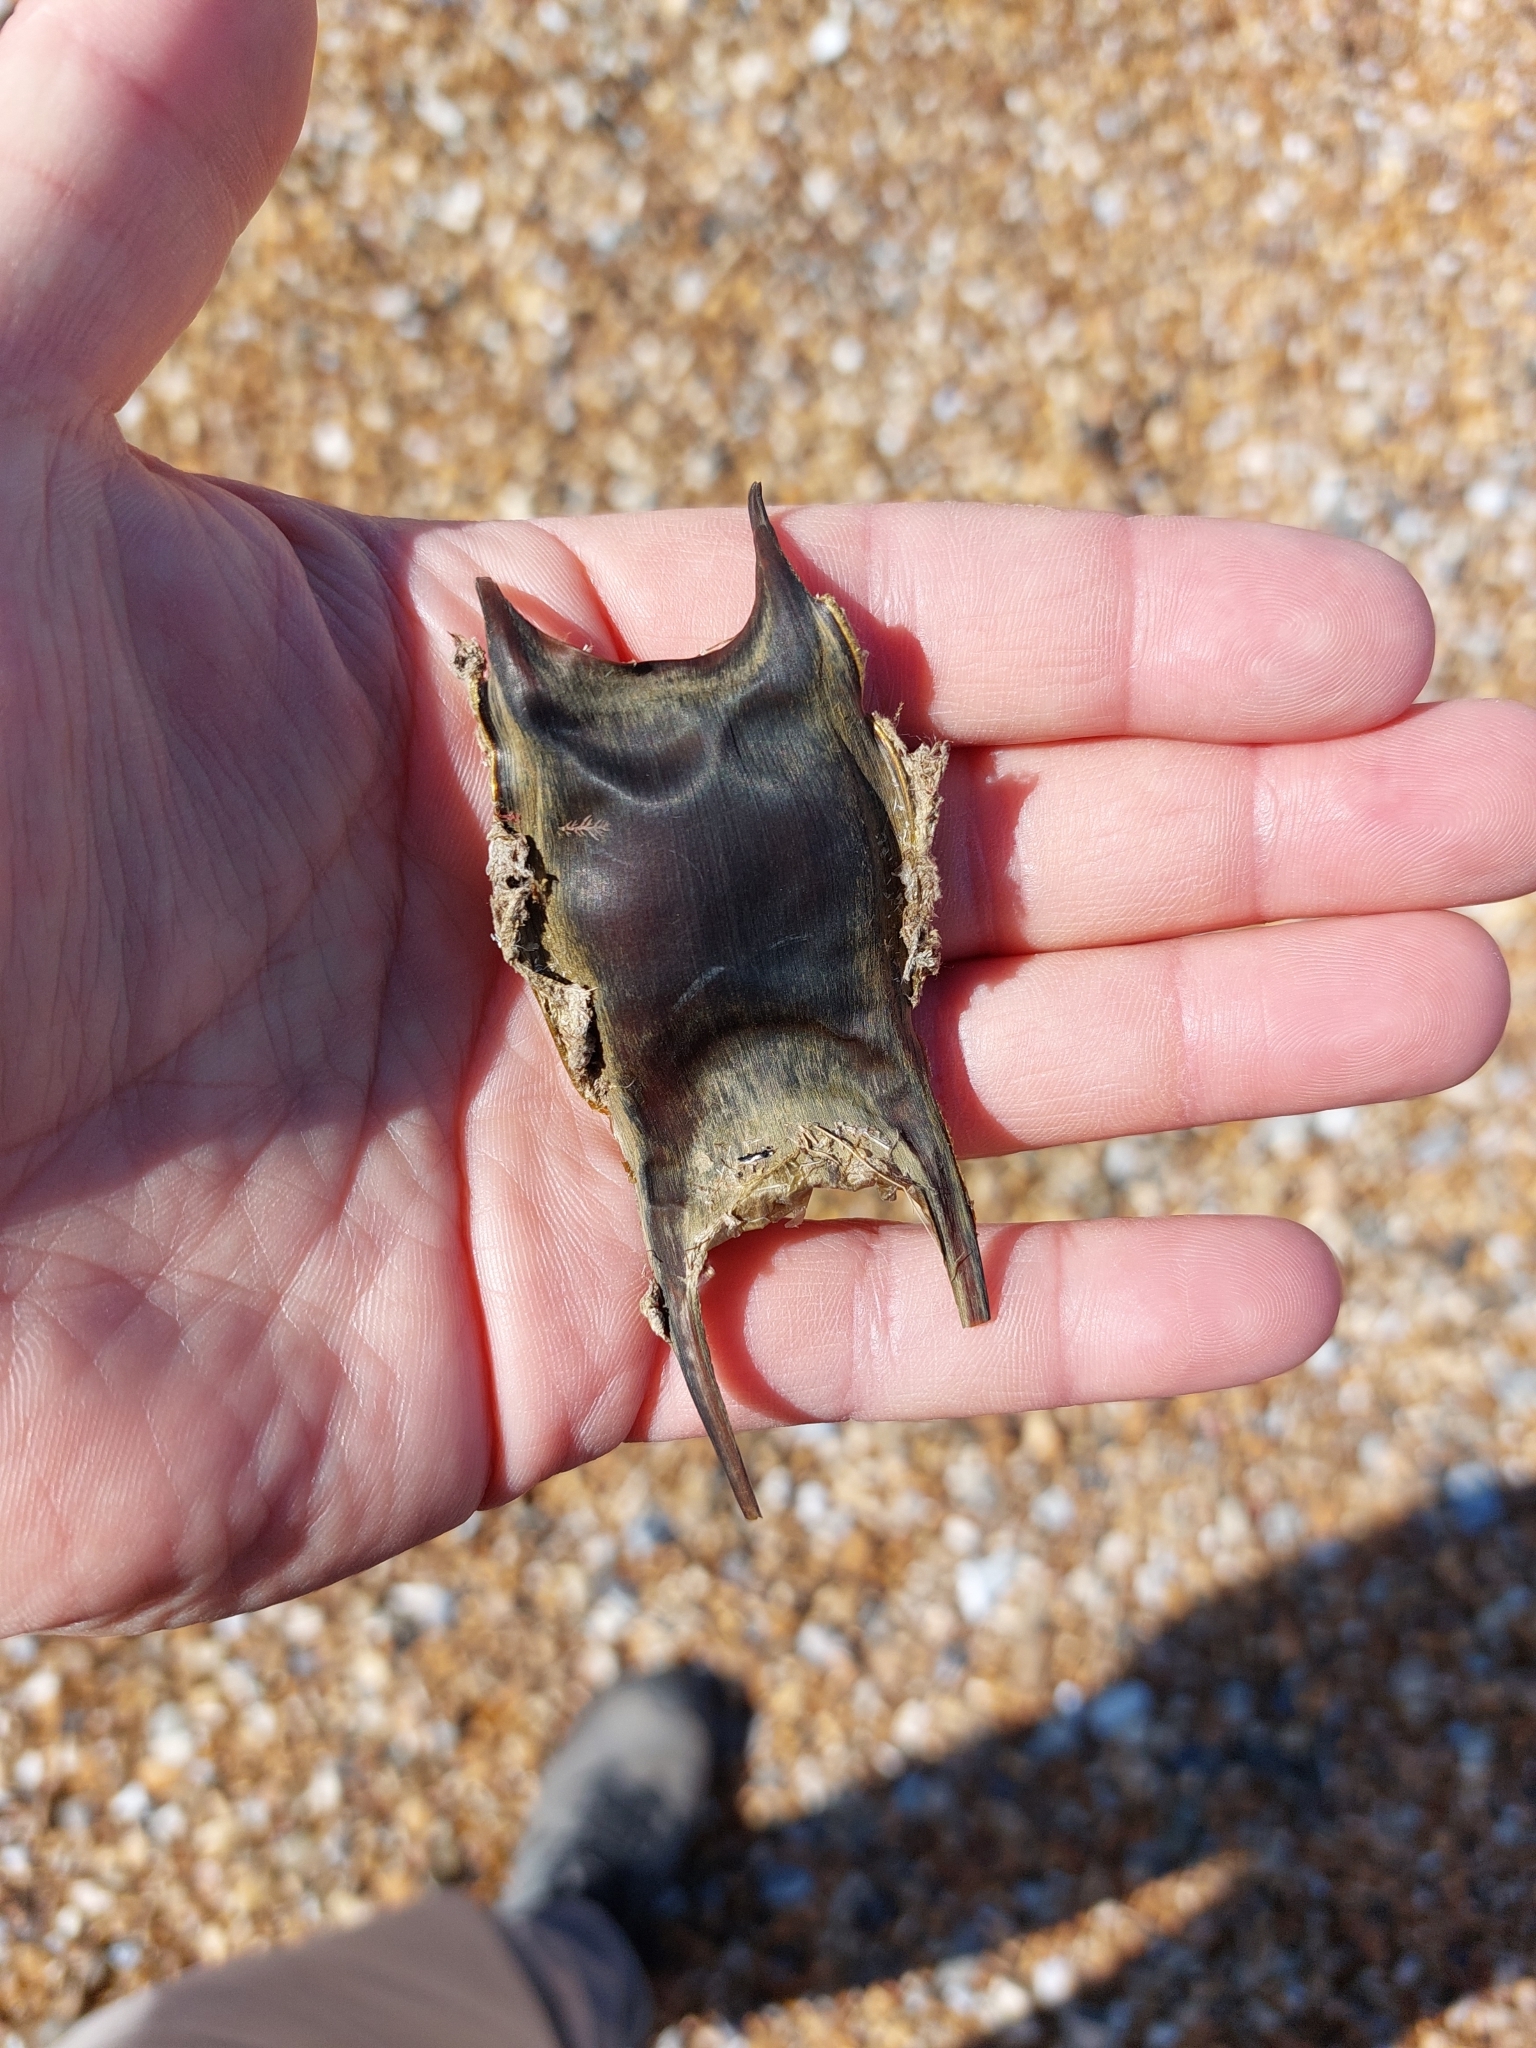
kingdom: Animalia
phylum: Chordata
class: Elasmobranchii
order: Rajiformes
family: Rajidae
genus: Raja
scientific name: Raja clavata
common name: Thornback ray
